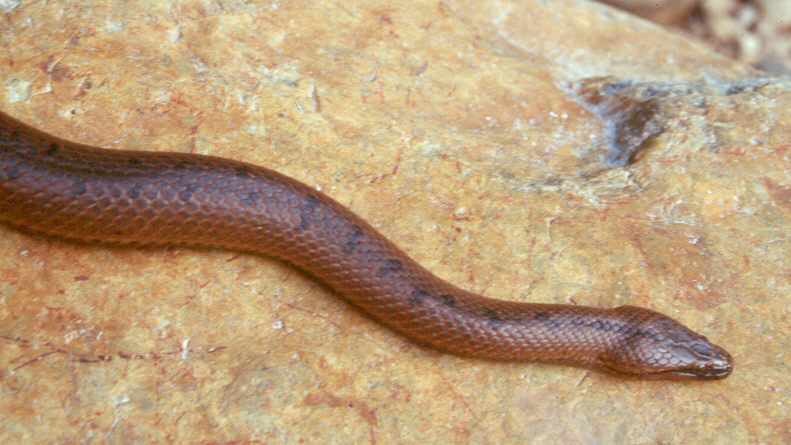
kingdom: Animalia
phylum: Chordata
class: Squamata
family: Colubridae
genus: Tretanorhinus
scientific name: Tretanorhinus nigroluteus
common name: Orangebelly swamp snake
